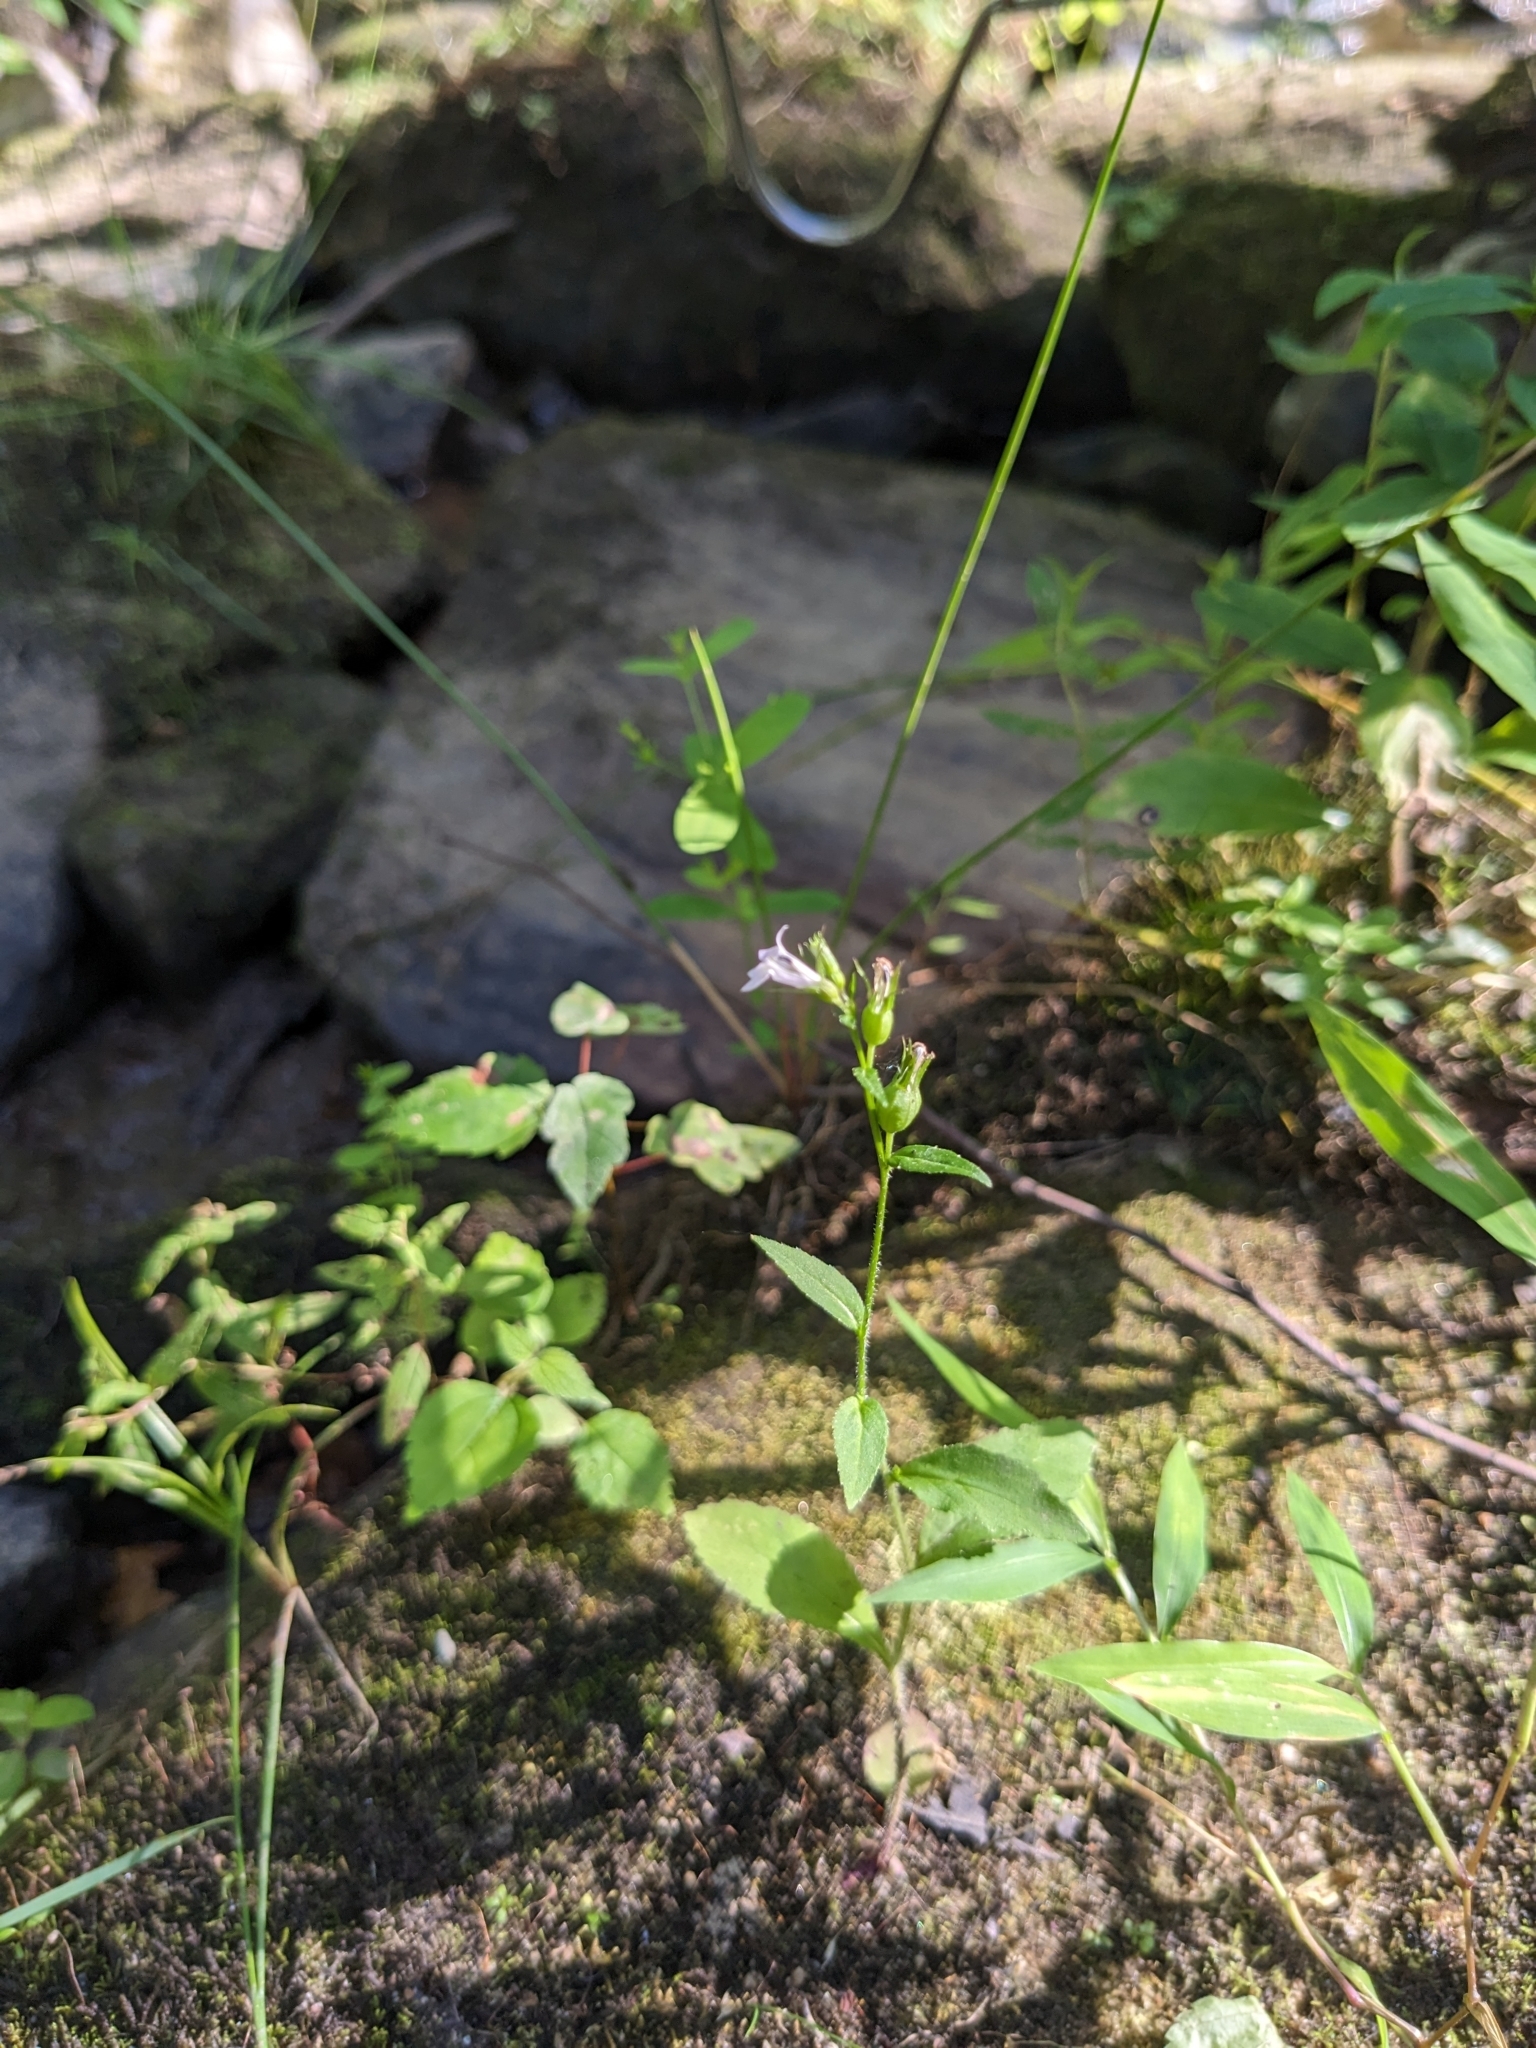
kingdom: Plantae
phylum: Tracheophyta
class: Magnoliopsida
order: Asterales
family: Campanulaceae
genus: Lobelia
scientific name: Lobelia inflata
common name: Indian tobacco
